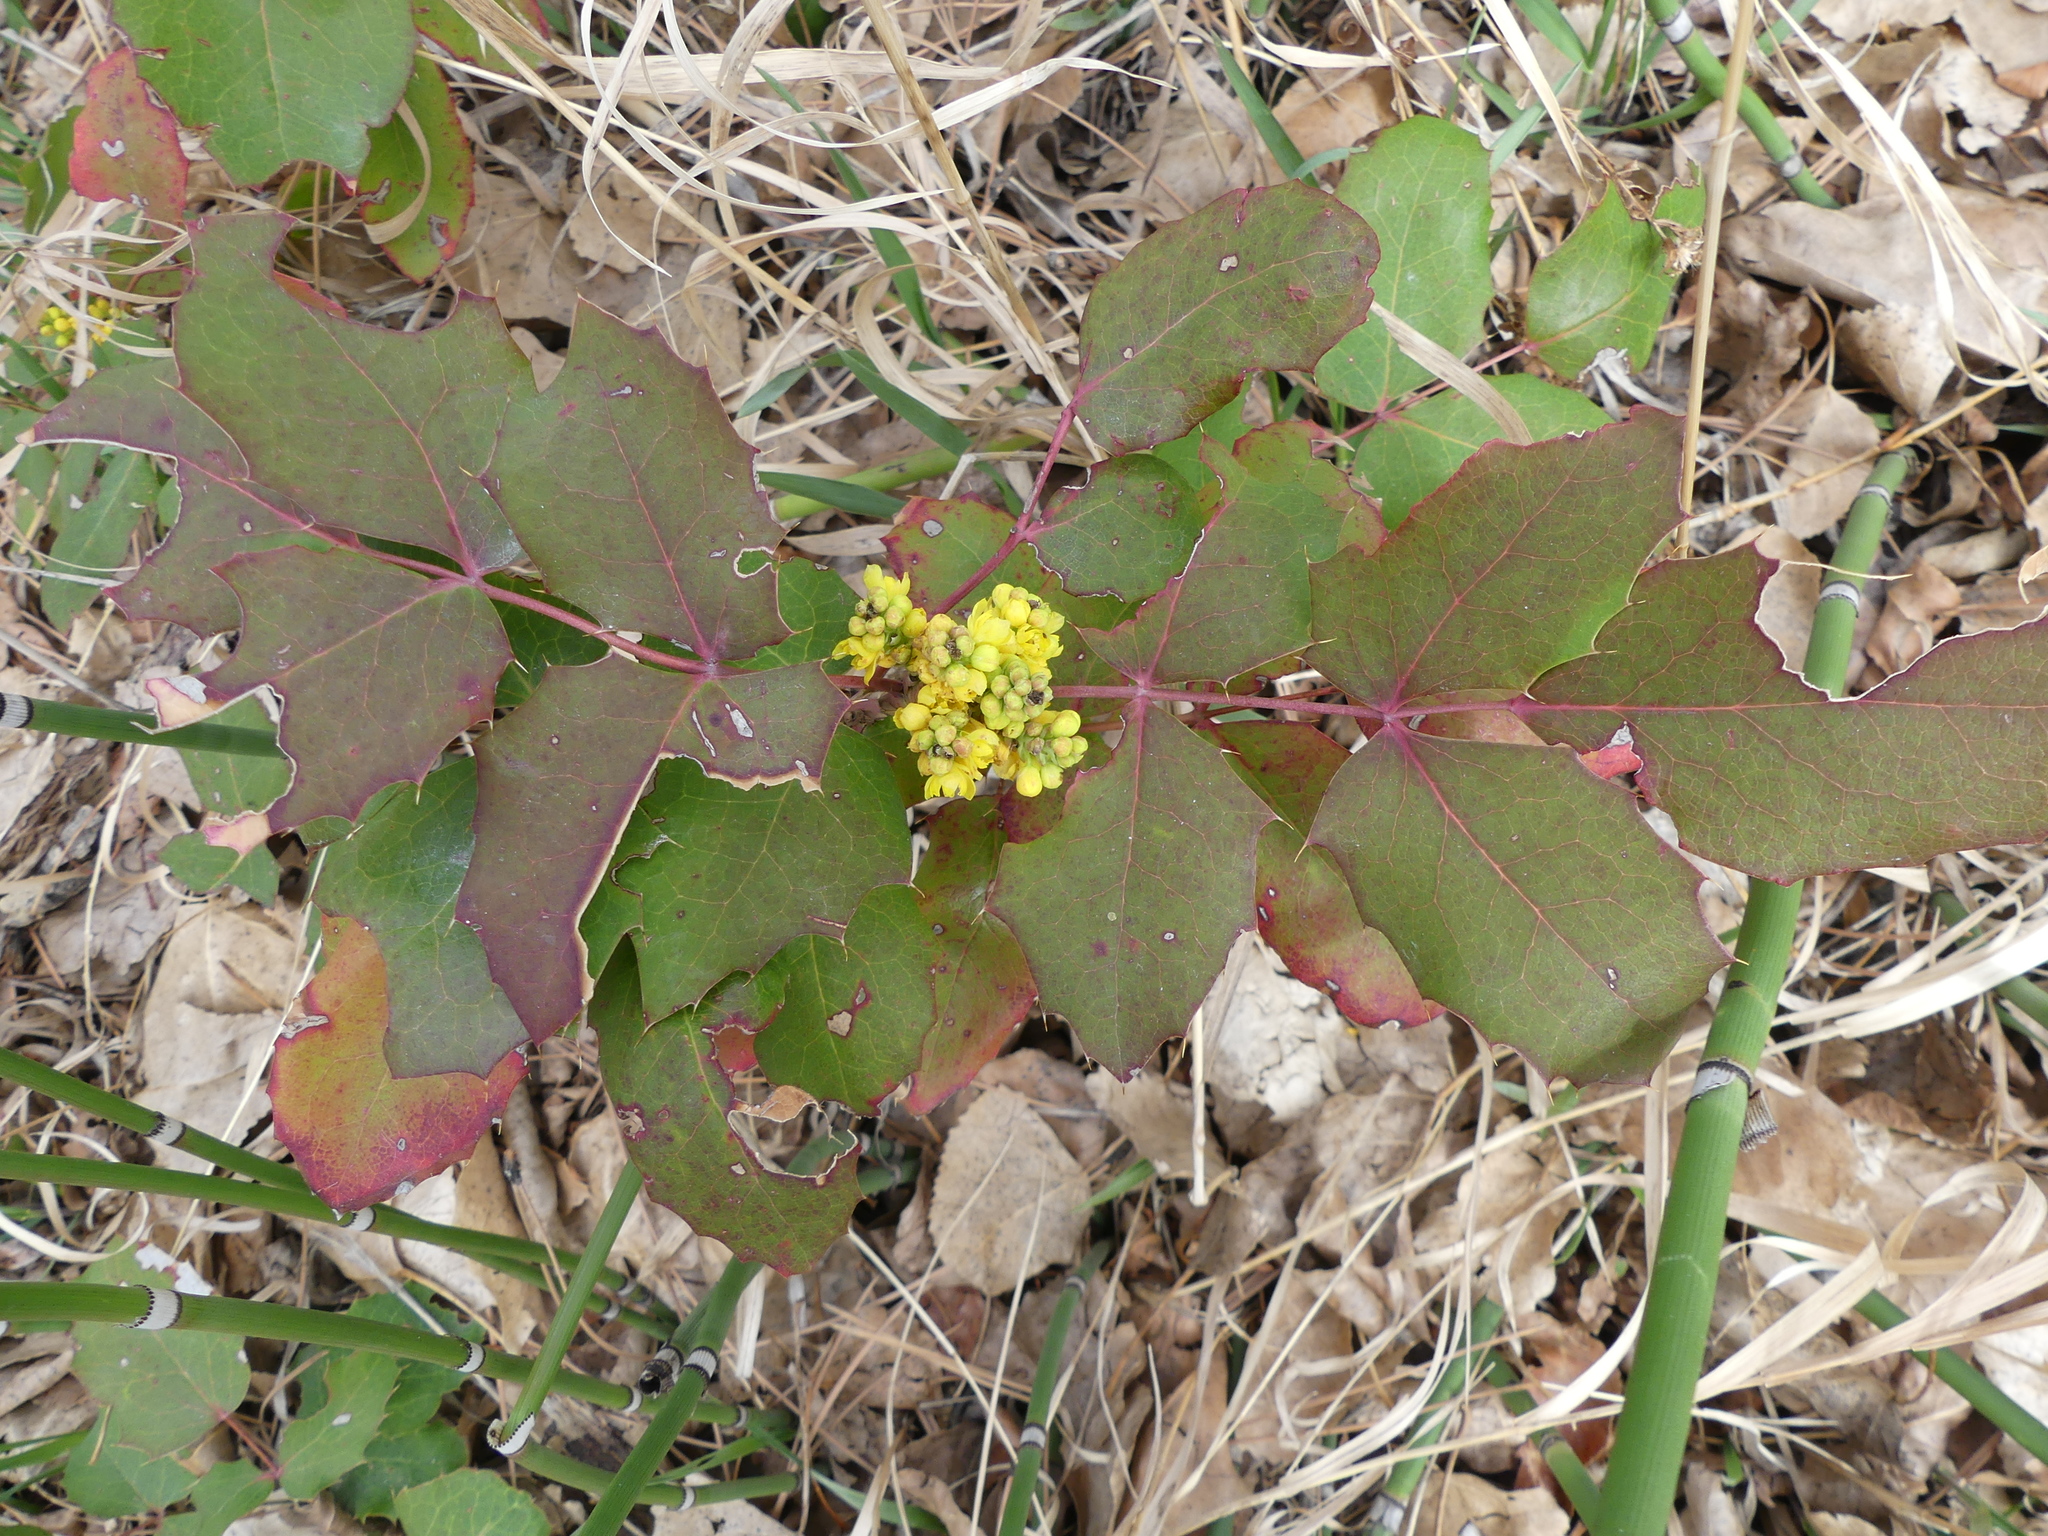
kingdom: Plantae
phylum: Tracheophyta
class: Magnoliopsida
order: Ranunculales
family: Berberidaceae
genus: Mahonia
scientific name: Mahonia repens
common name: Creeping oregon-grape
